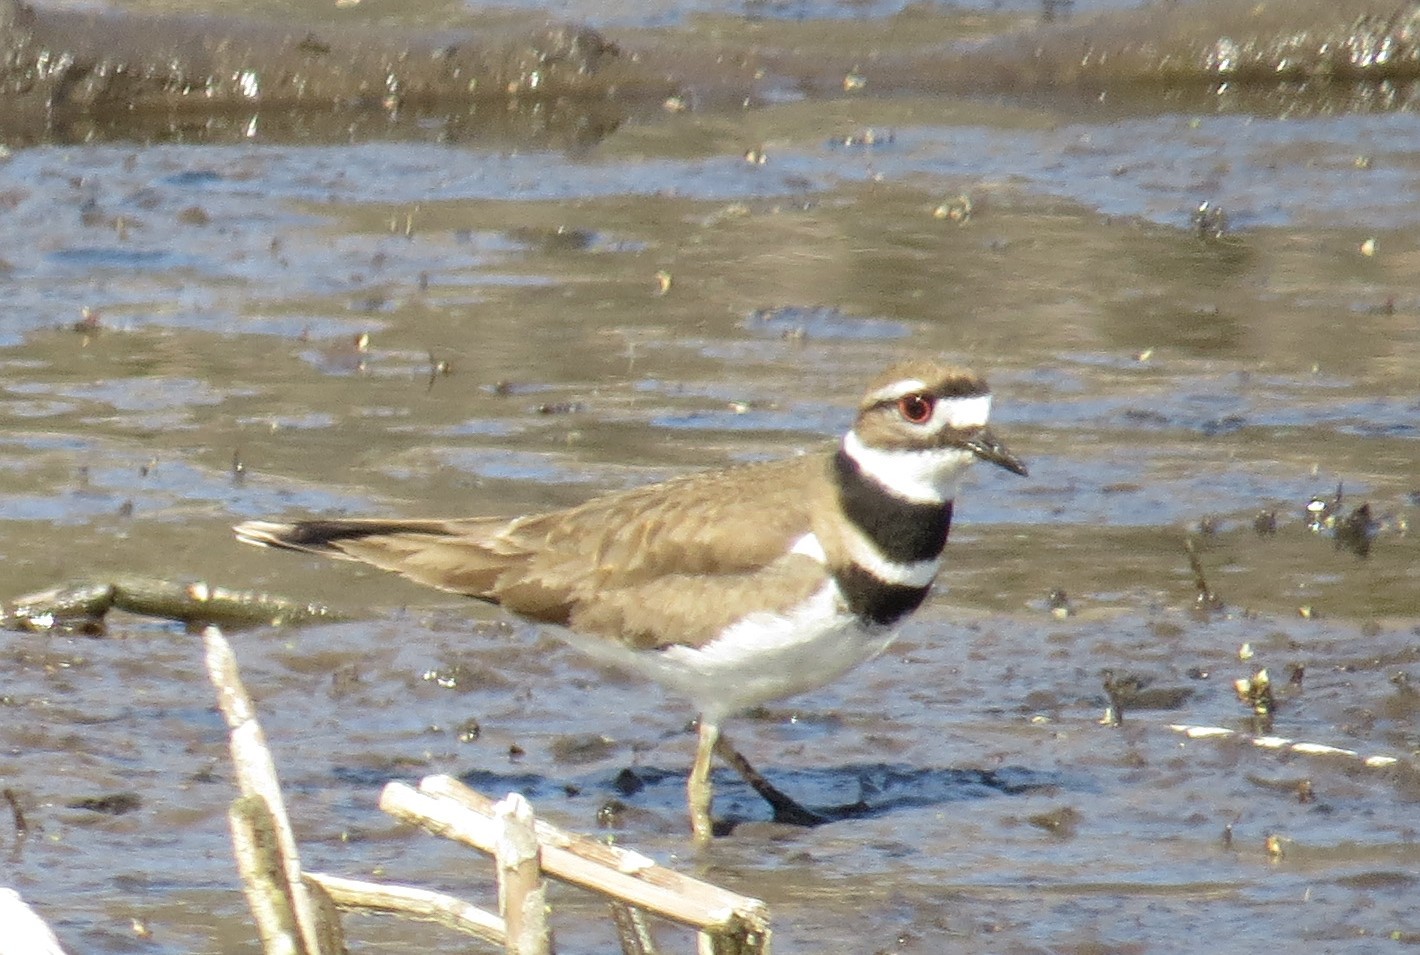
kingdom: Animalia
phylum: Chordata
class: Aves
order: Charadriiformes
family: Charadriidae
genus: Charadrius
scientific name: Charadrius vociferus
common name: Killdeer
